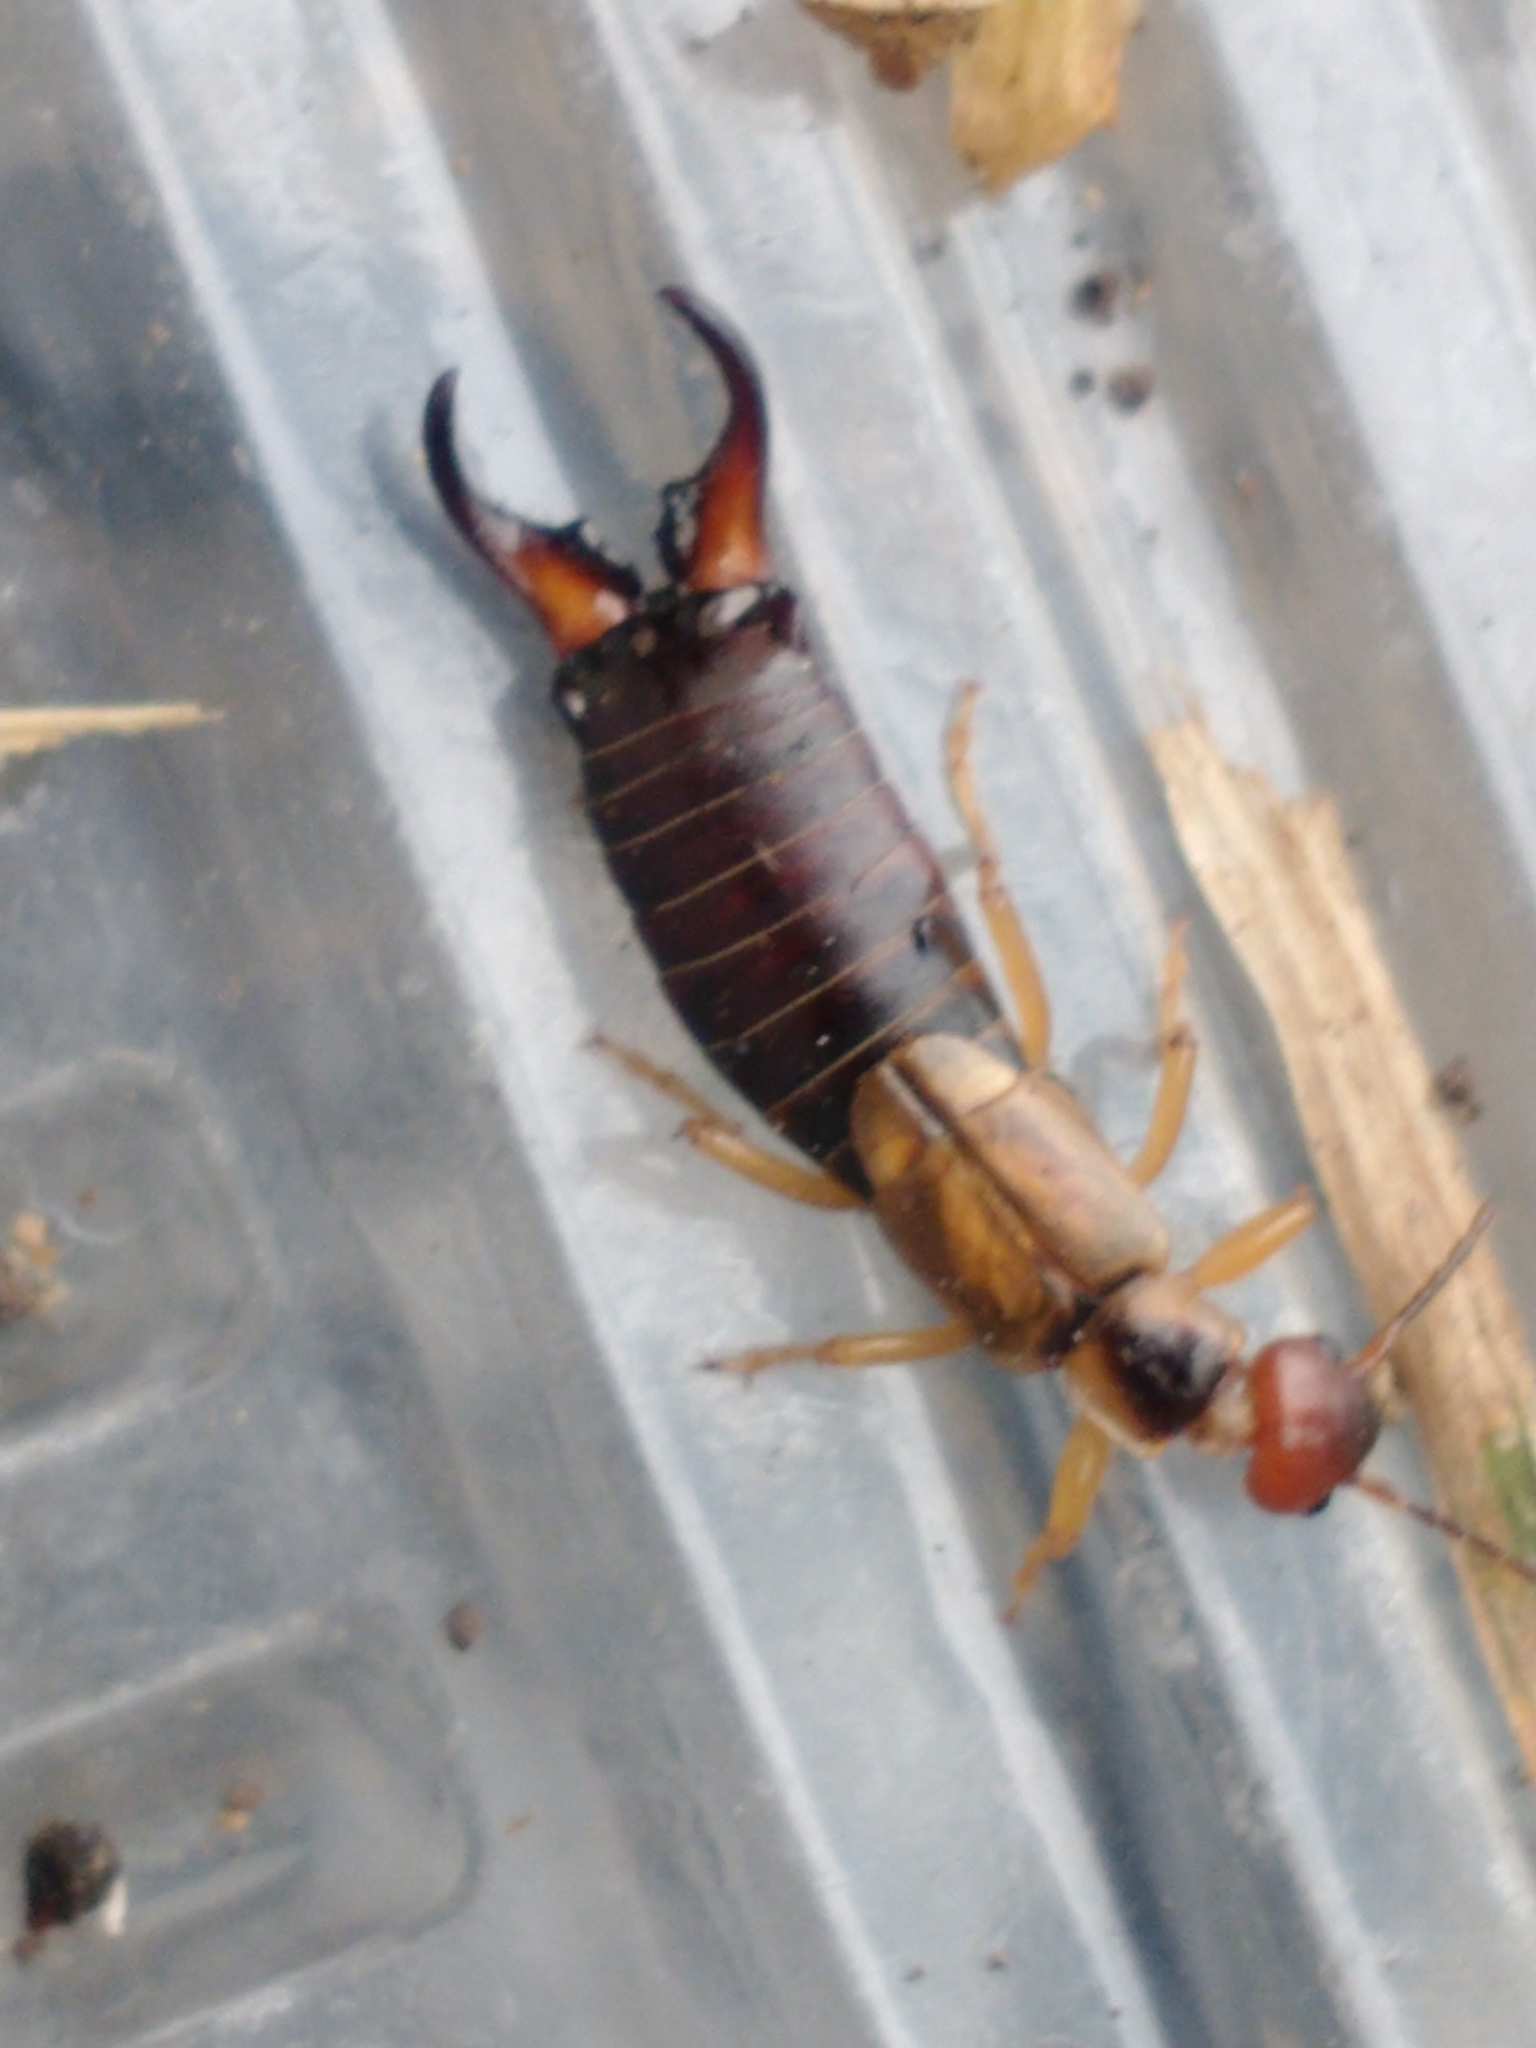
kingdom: Animalia
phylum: Arthropoda
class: Insecta
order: Dermaptera
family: Forficulidae
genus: Forficula
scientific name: Forficula
